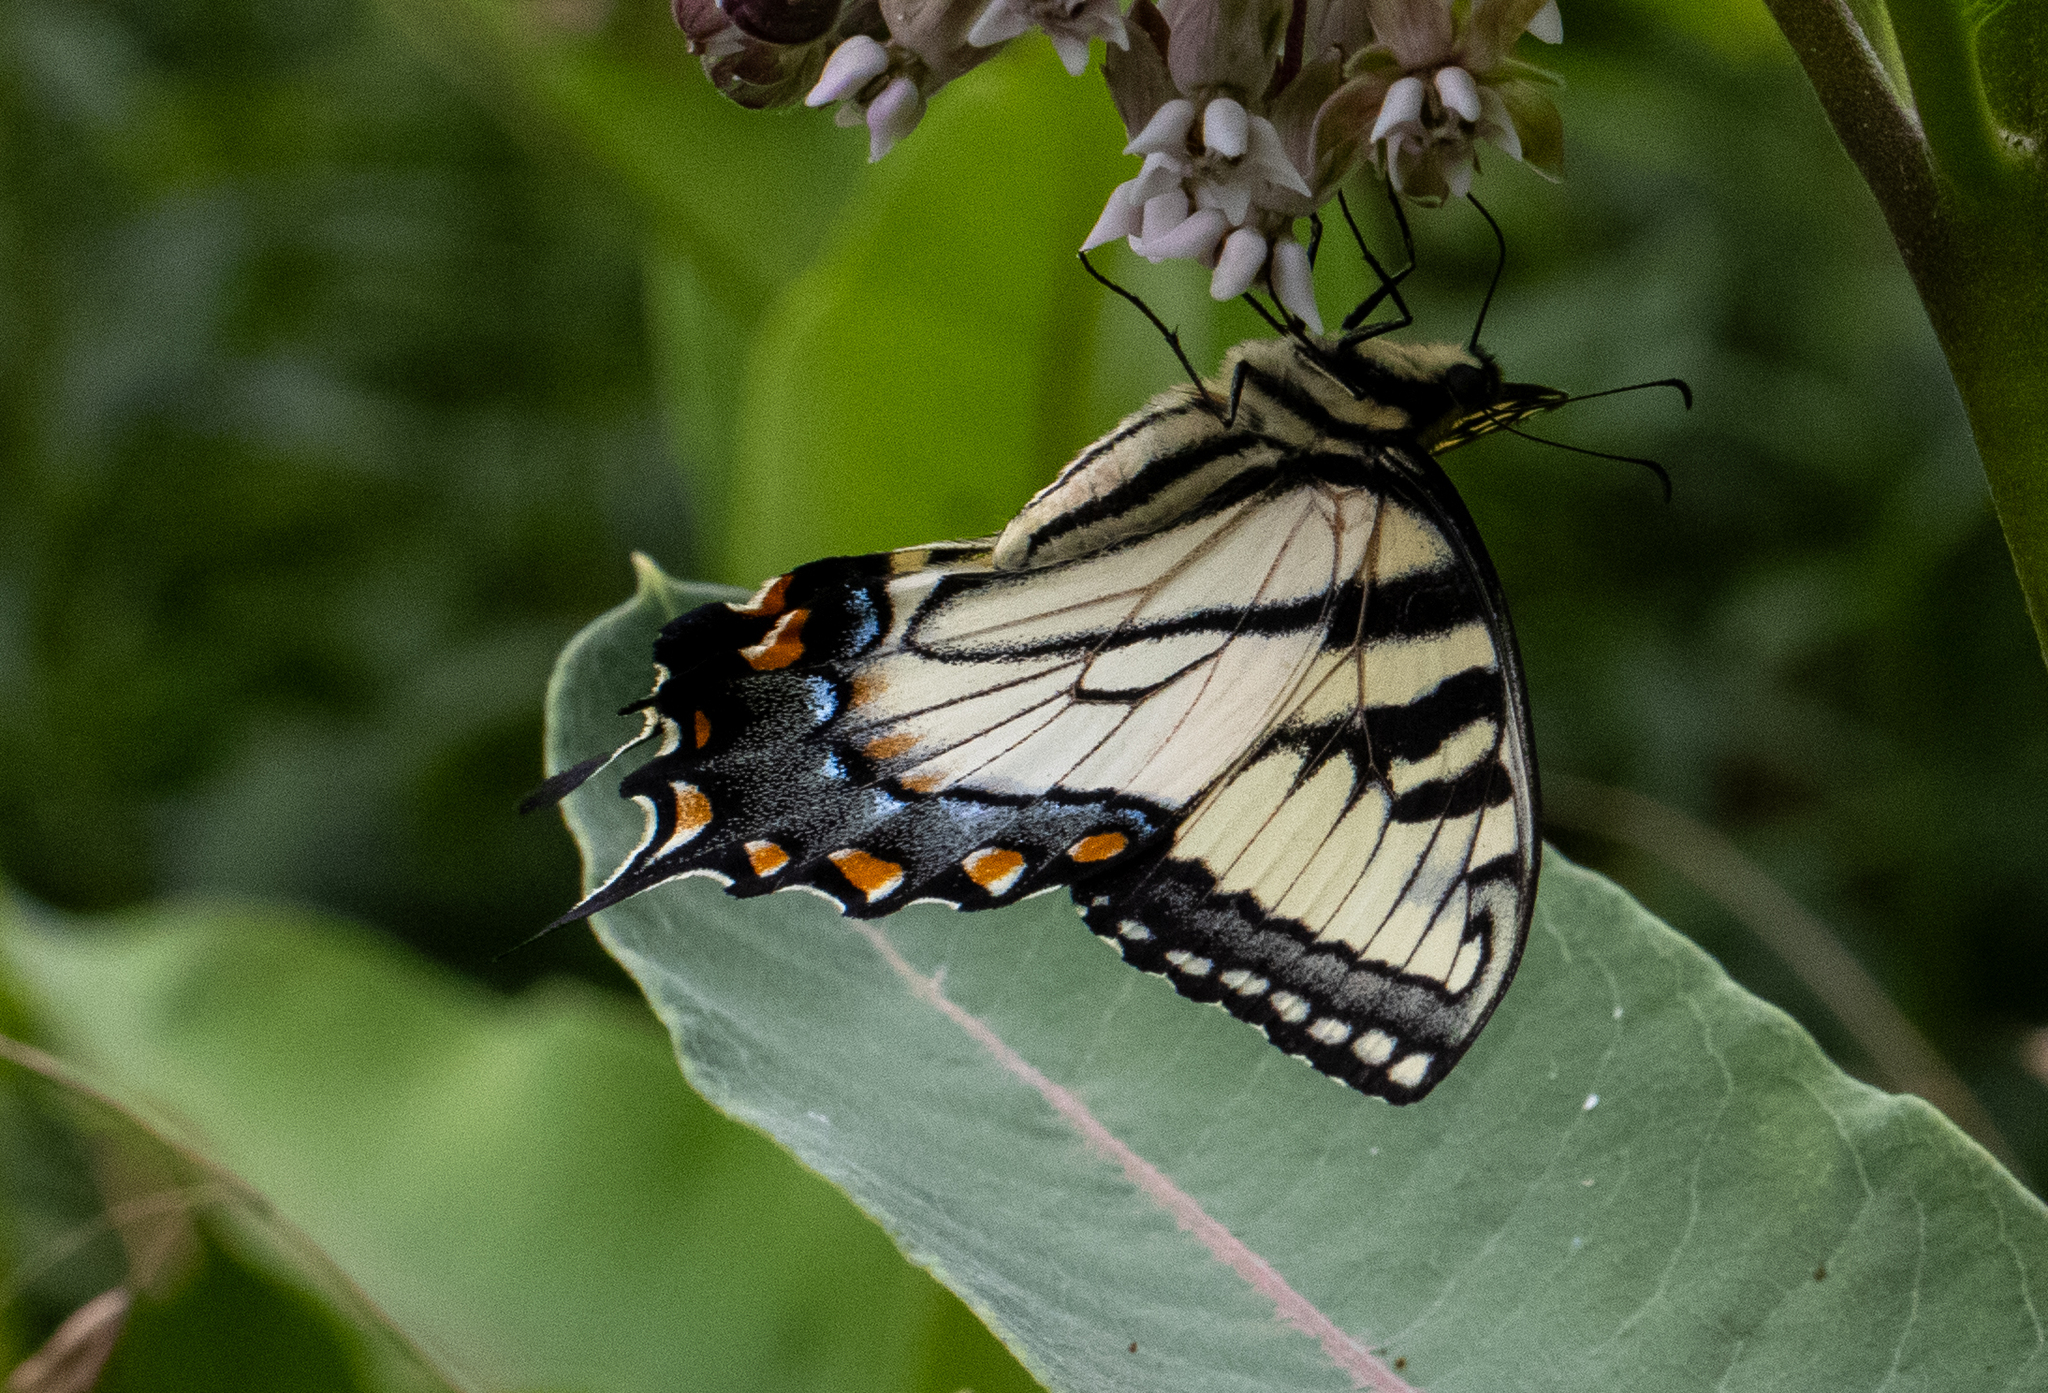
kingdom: Animalia
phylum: Arthropoda
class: Insecta
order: Lepidoptera
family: Papilionidae
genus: Papilio
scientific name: Papilio glaucus
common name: Tiger swallowtail
